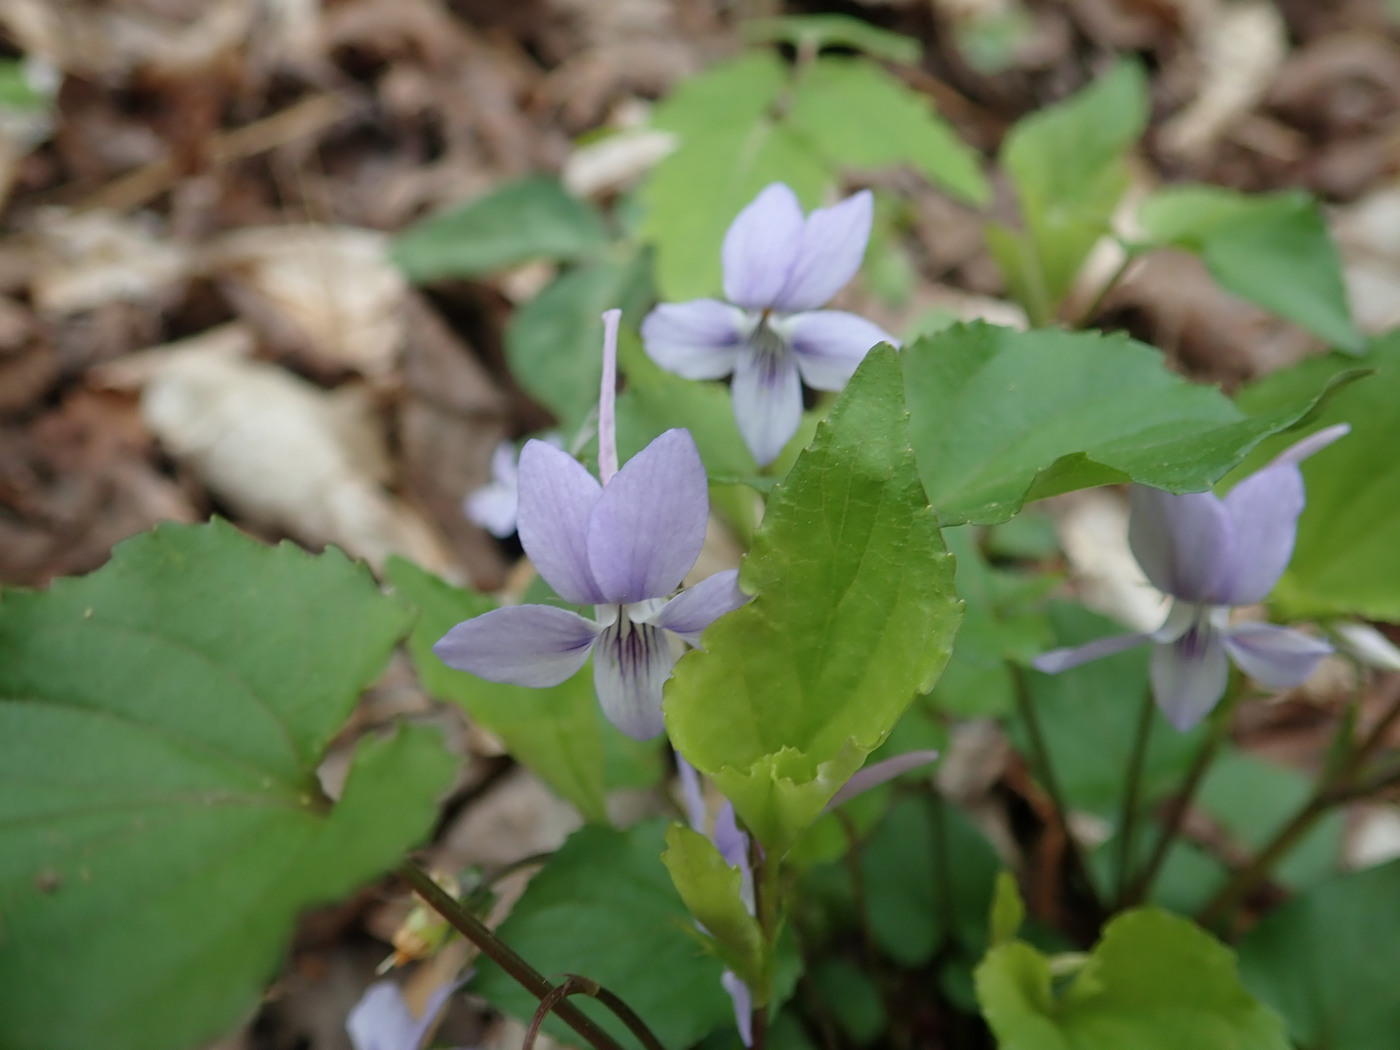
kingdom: Plantae
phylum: Tracheophyta
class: Magnoliopsida
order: Malpighiales
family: Violaceae
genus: Viola
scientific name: Viola rostrata
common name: Long-spur violet
